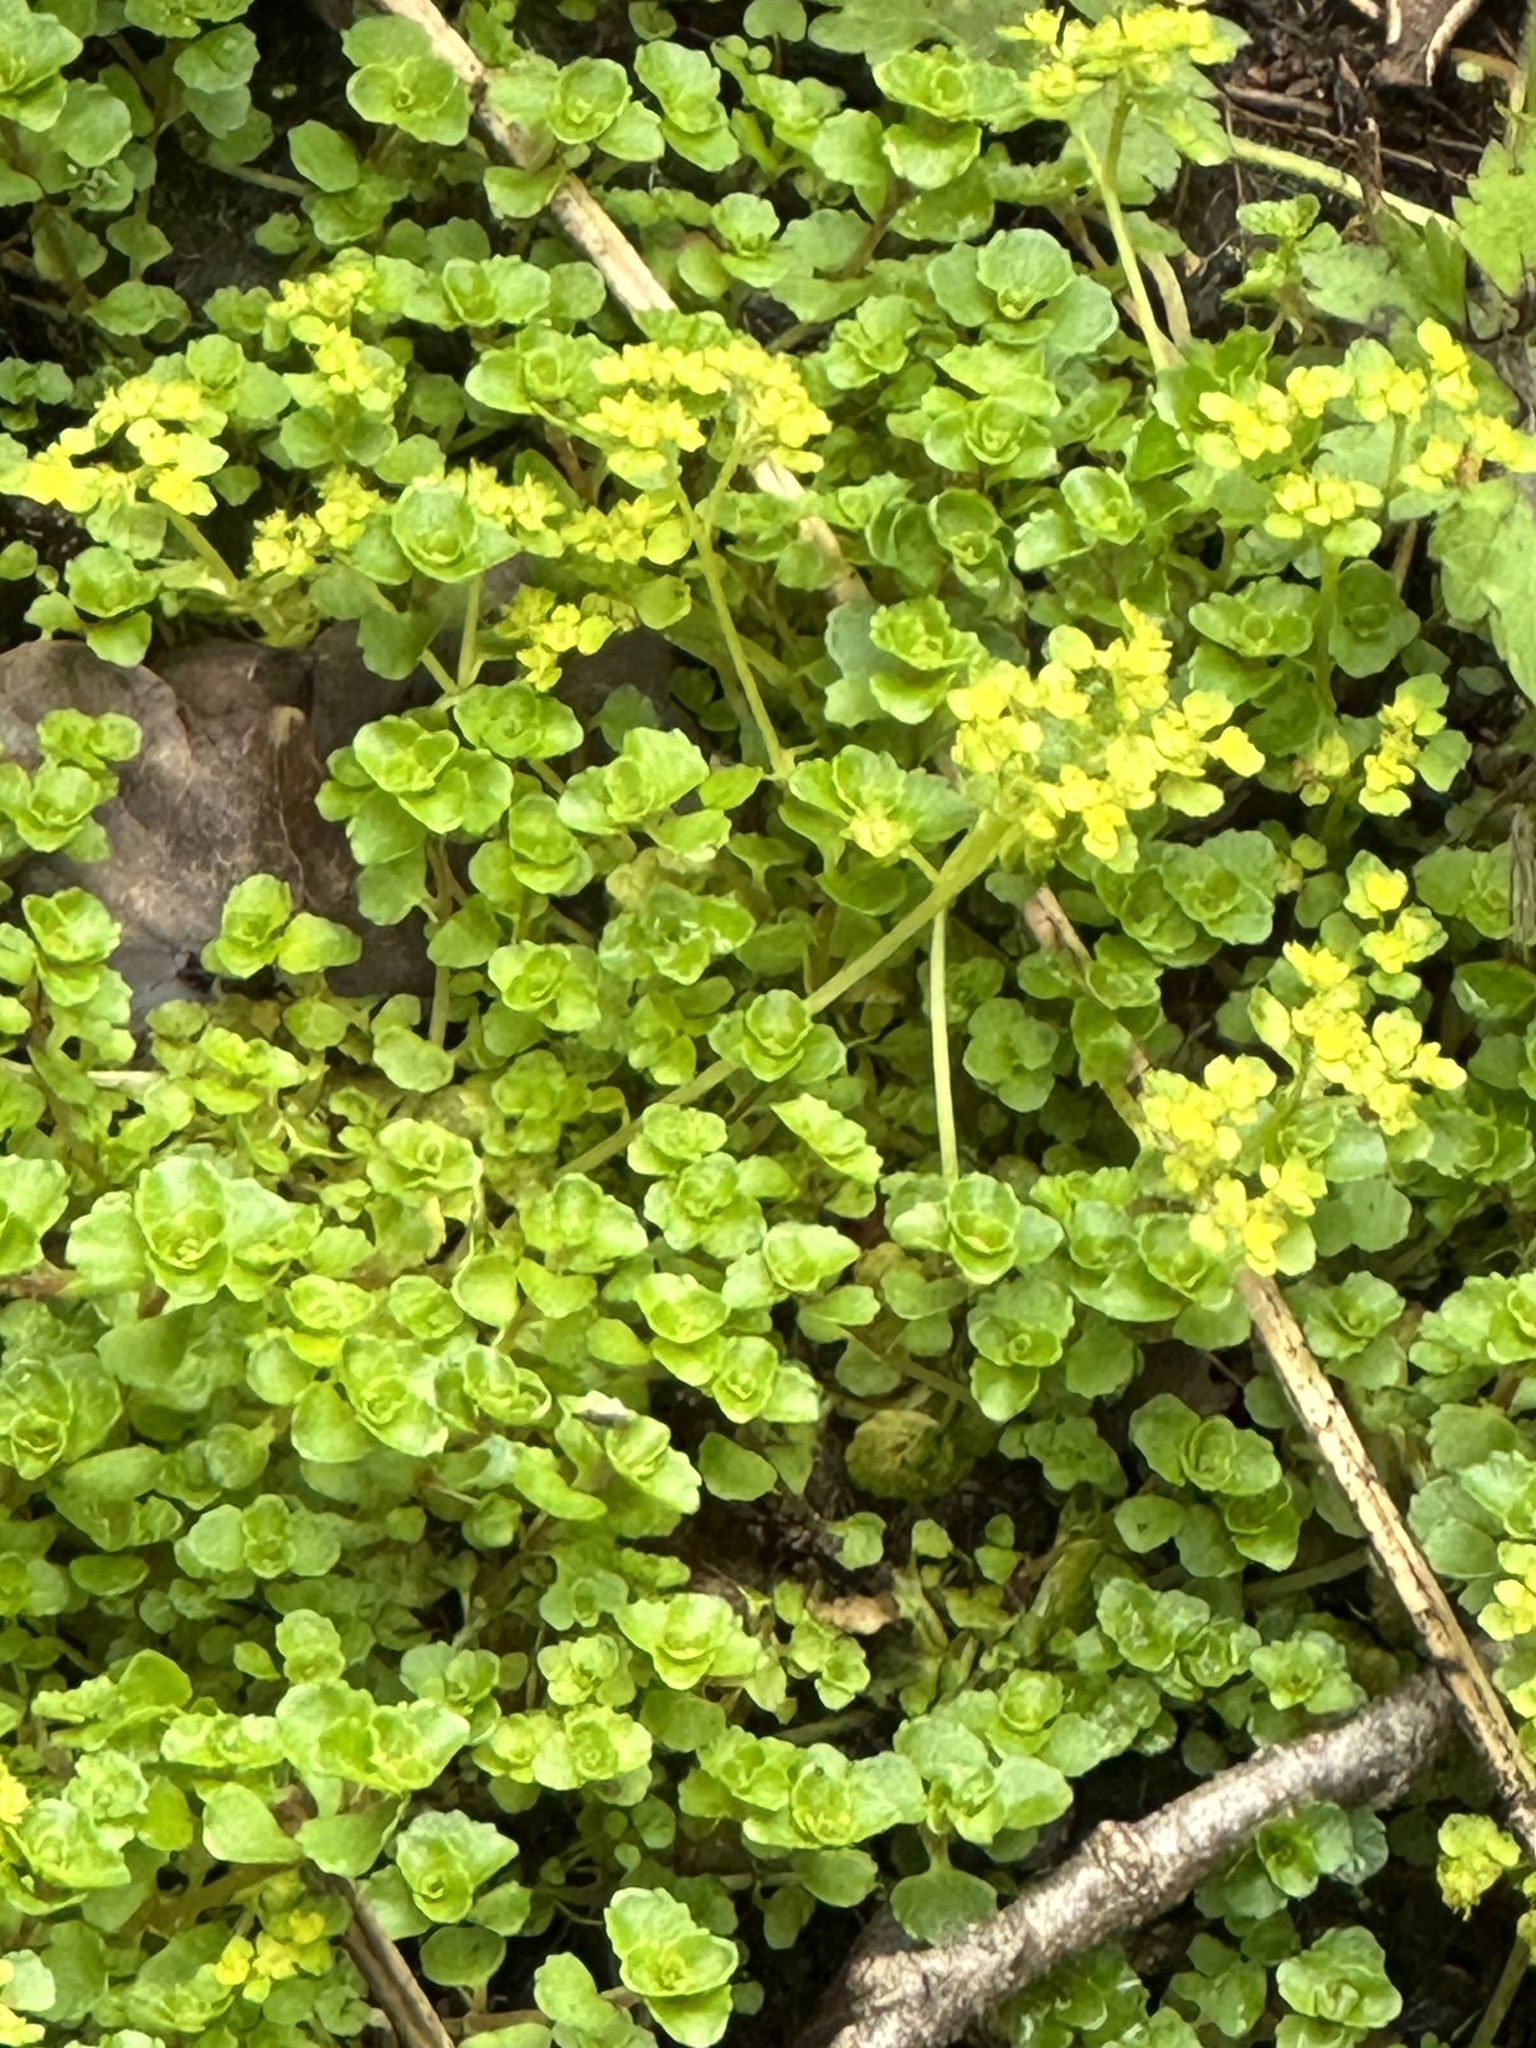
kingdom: Plantae
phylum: Tracheophyta
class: Magnoliopsida
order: Saxifragales
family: Saxifragaceae
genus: Chrysosplenium
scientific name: Chrysosplenium oppositifolium
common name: Opposite-leaved golden-saxifrage
